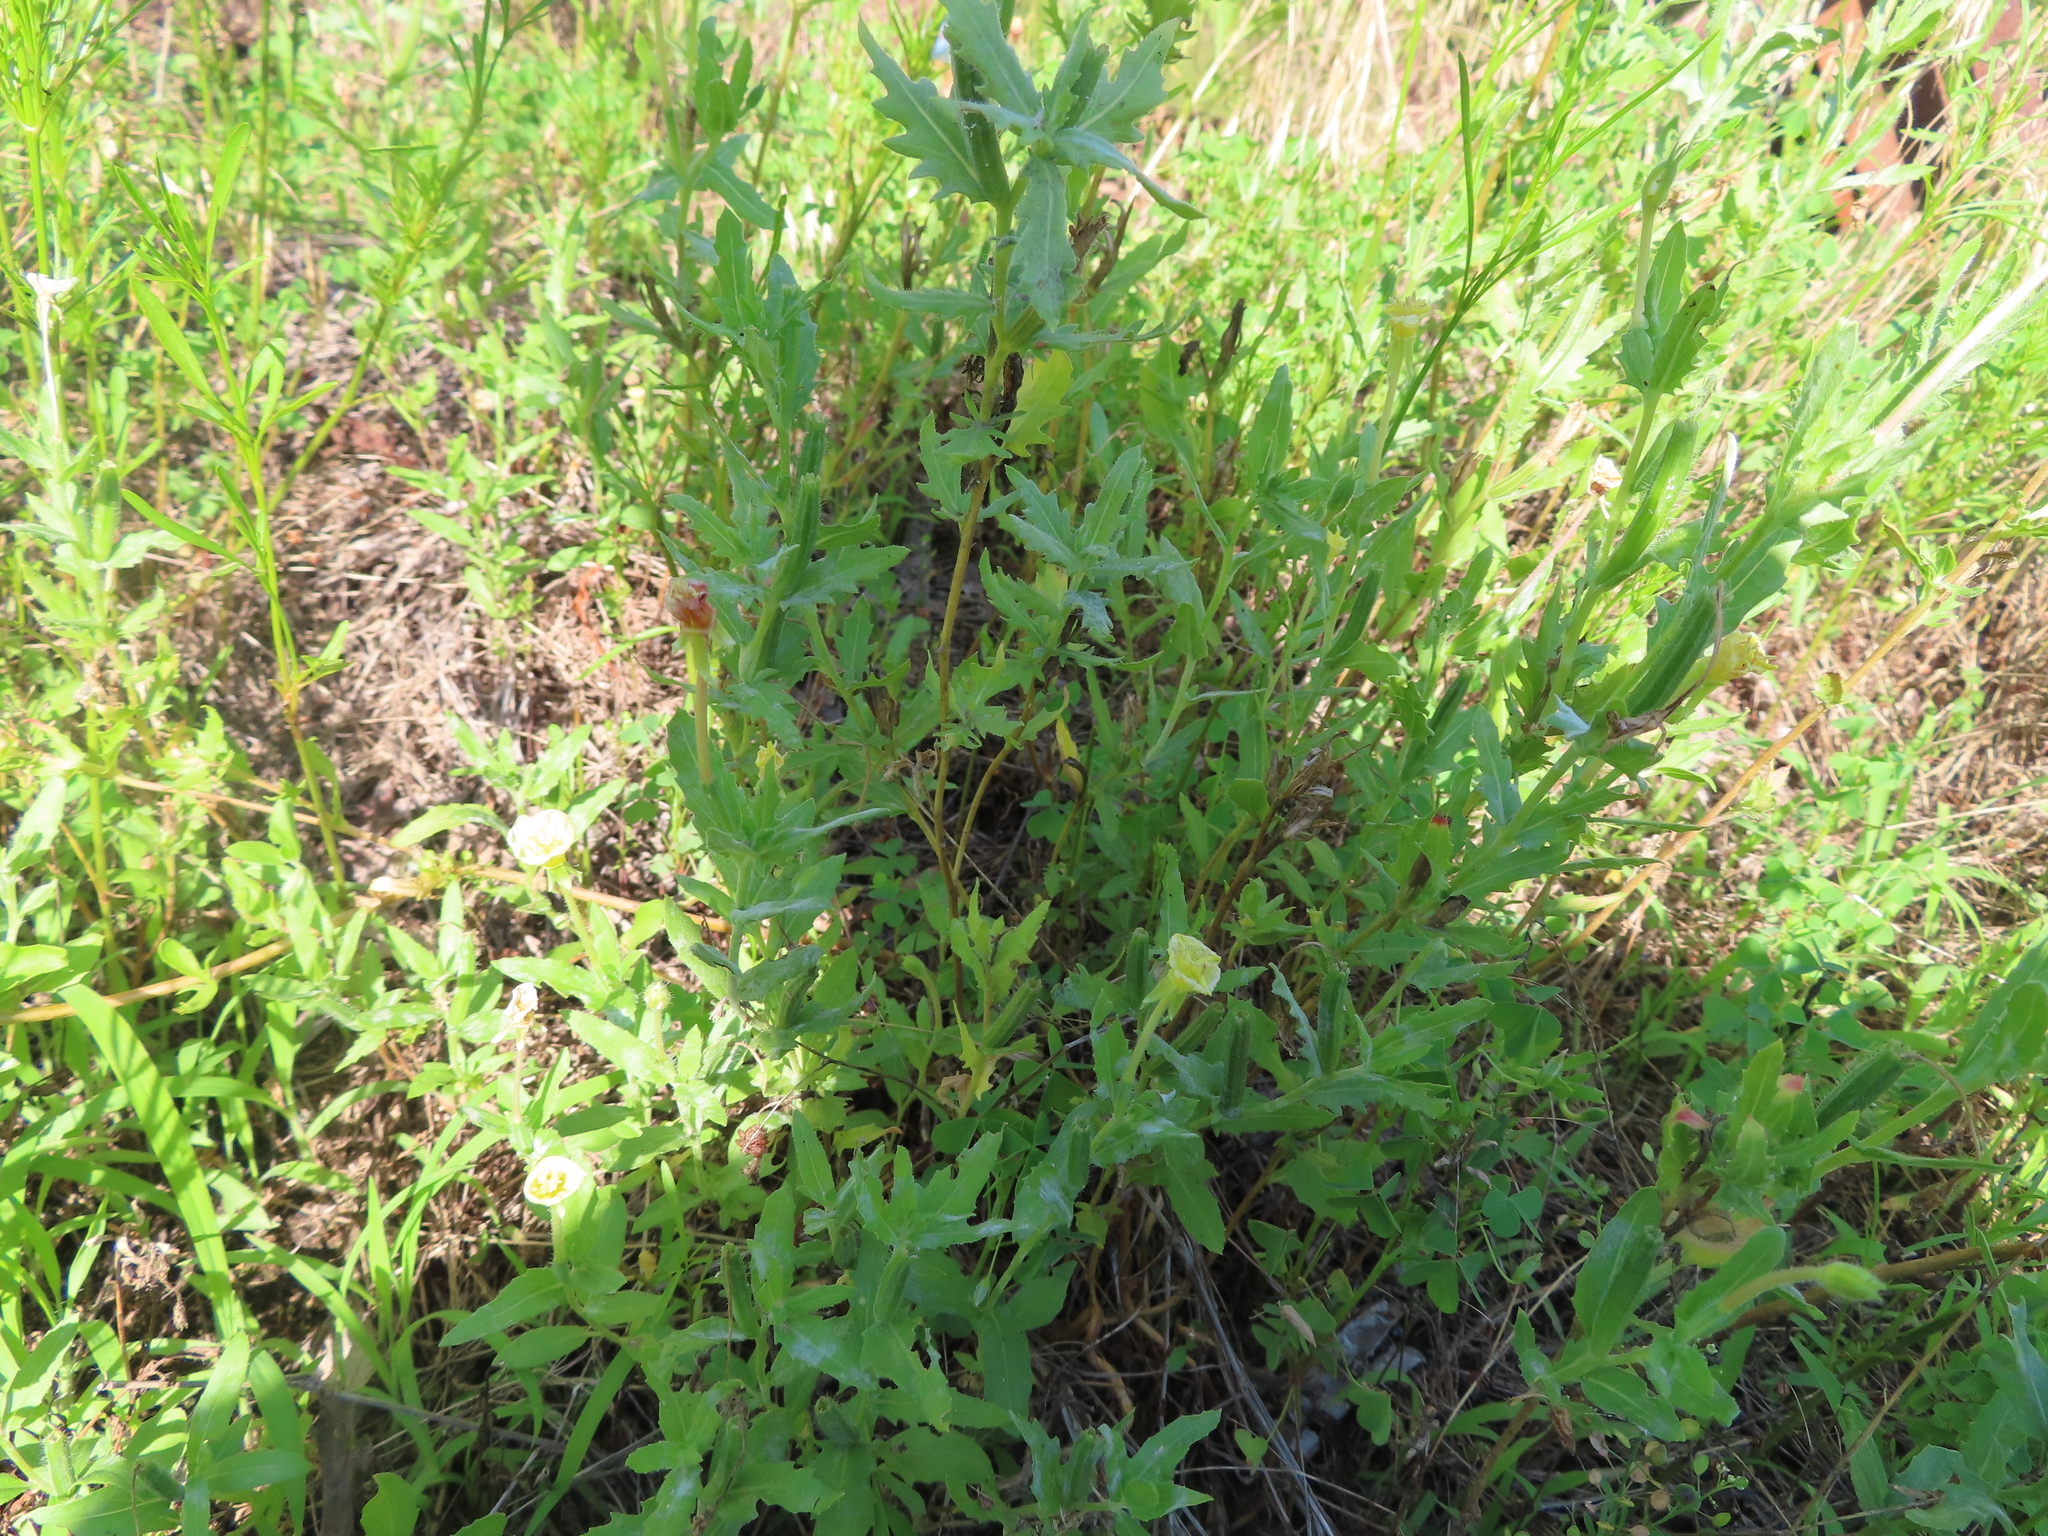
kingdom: Plantae
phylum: Tracheophyta
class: Magnoliopsida
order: Myrtales
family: Onagraceae
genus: Oenothera
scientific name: Oenothera laciniata
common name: Cut-leaved evening-primrose
